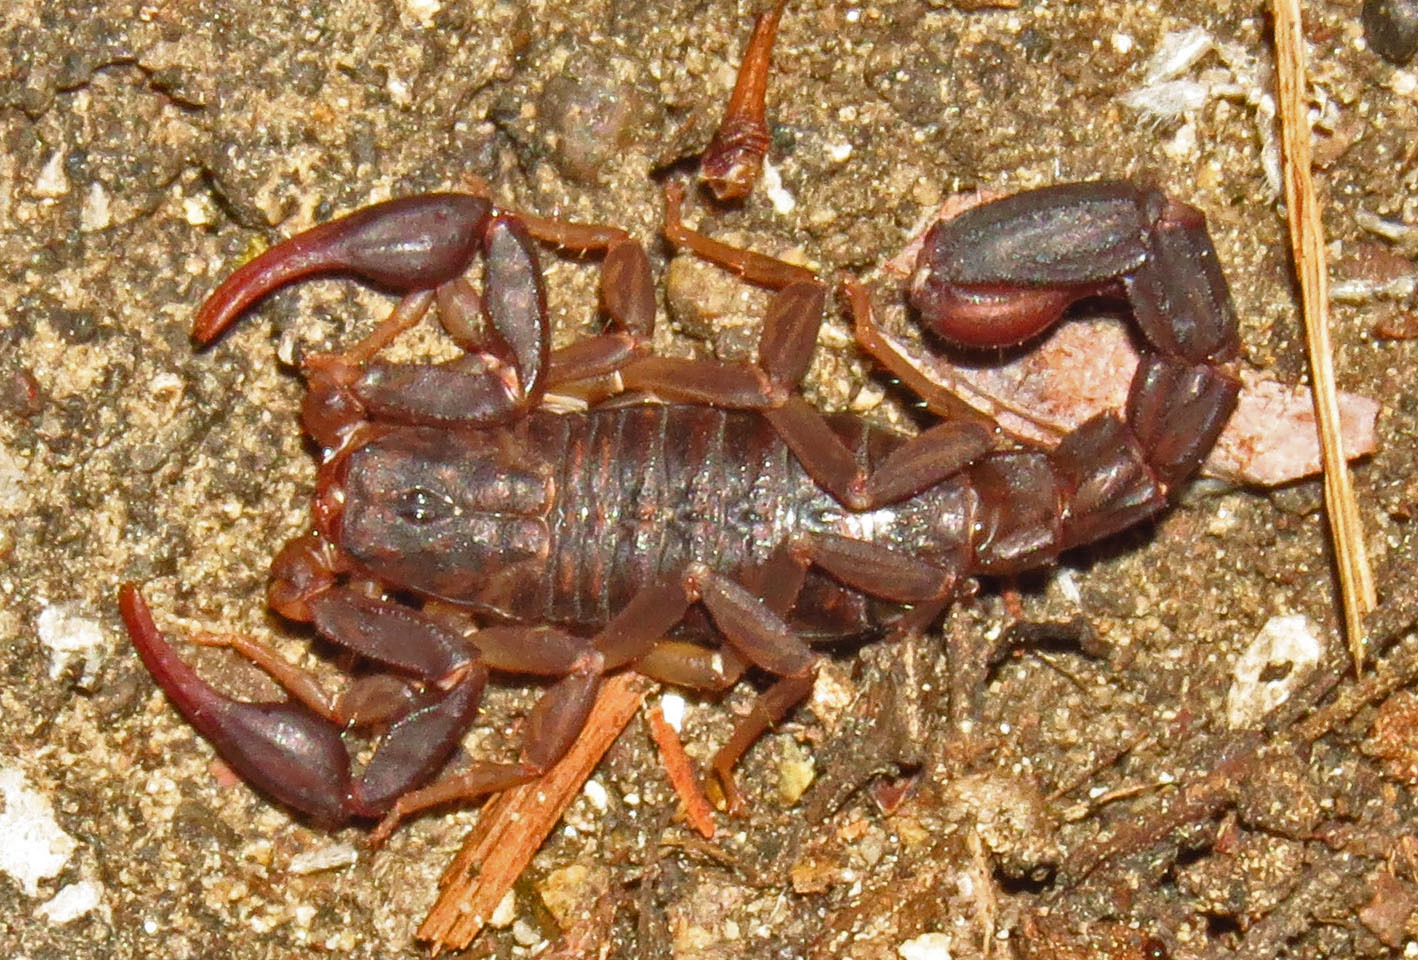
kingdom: Animalia
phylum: Arthropoda
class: Arachnida
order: Scorpiones
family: Vaejovidae
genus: Vaejovis
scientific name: Vaejovis carolinianus
